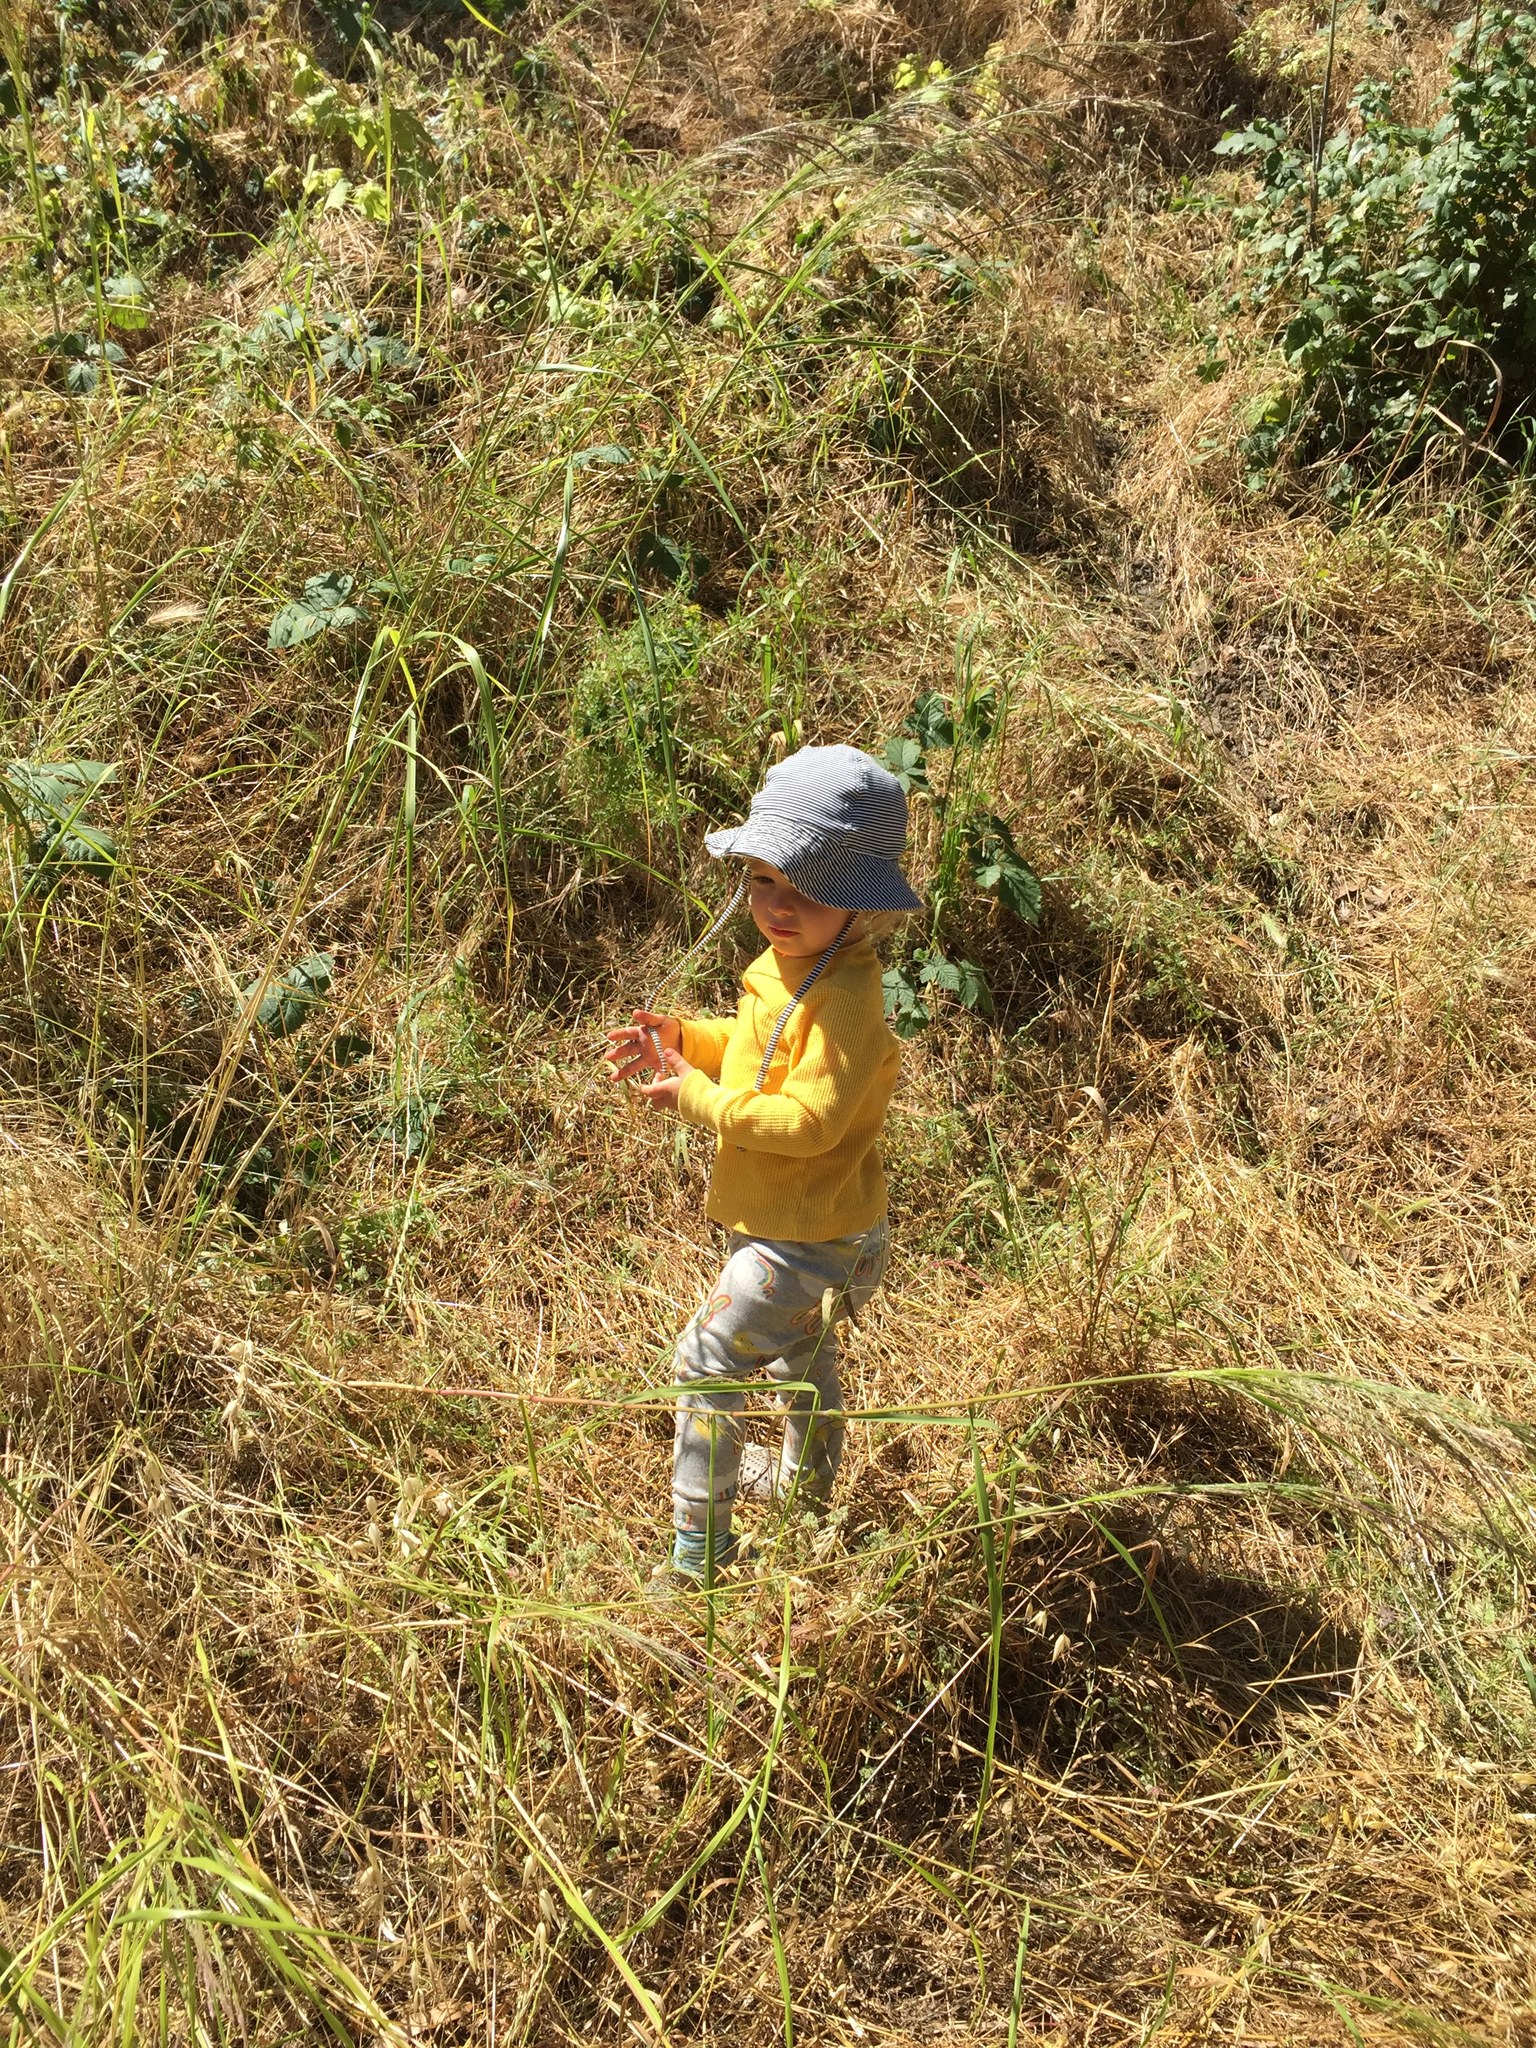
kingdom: Plantae
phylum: Tracheophyta
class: Liliopsida
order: Poales
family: Poaceae
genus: Oloptum
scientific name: Oloptum miliaceum
